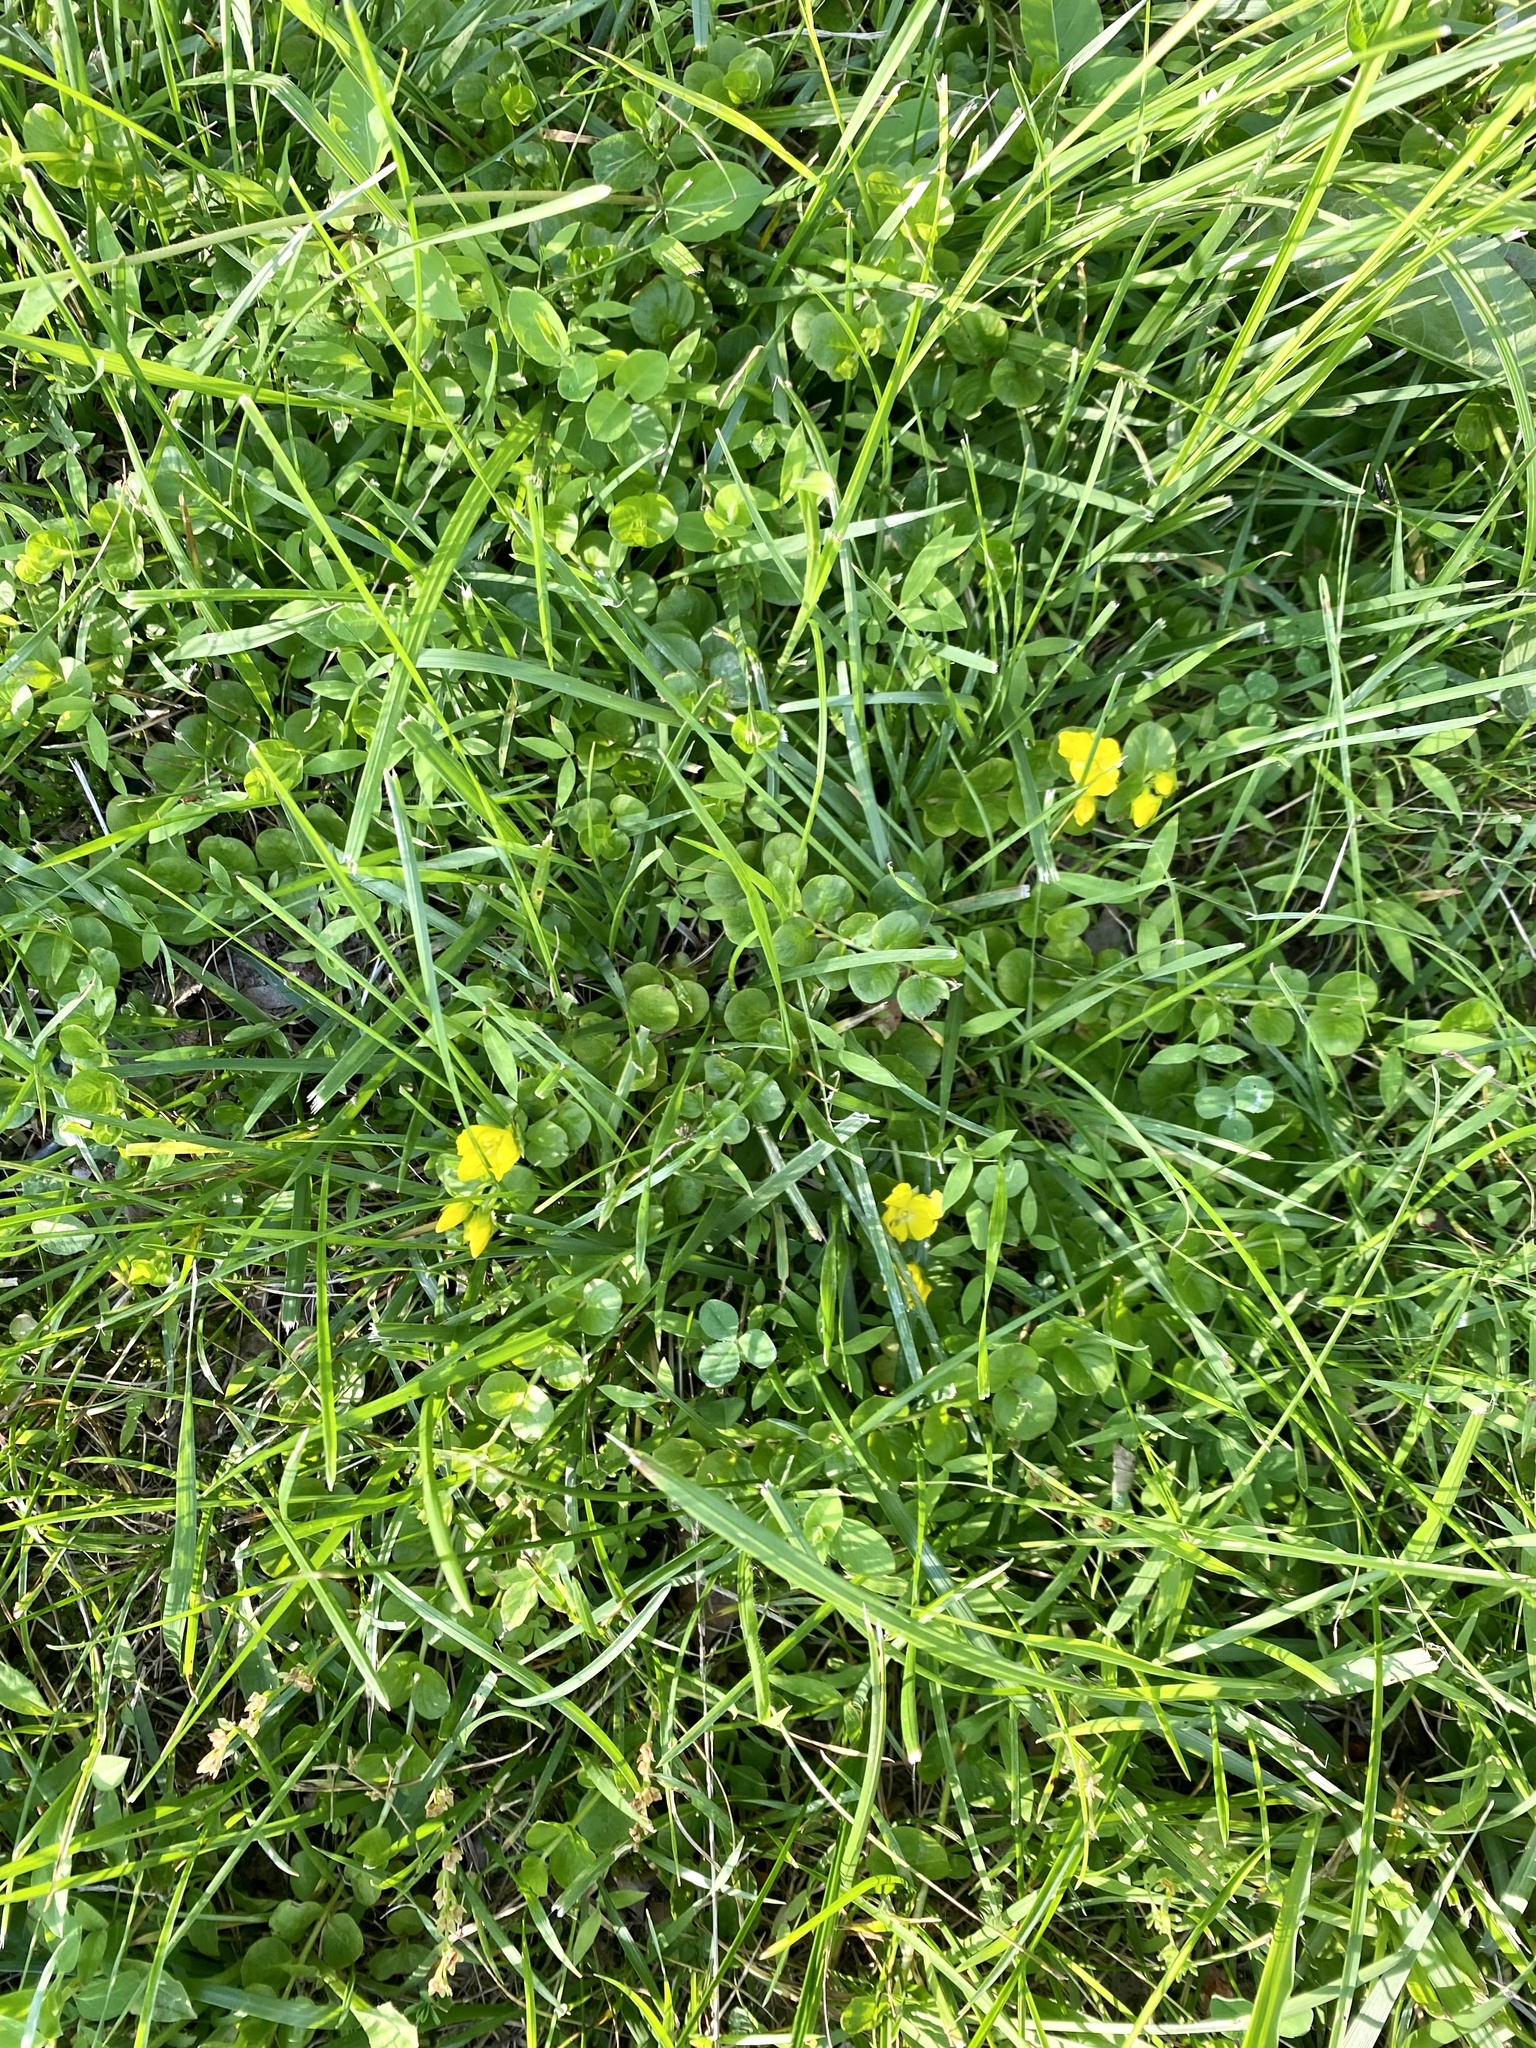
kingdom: Plantae
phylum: Tracheophyta
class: Magnoliopsida
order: Ericales
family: Primulaceae
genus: Lysimachia
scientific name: Lysimachia nummularia
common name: Moneywort
